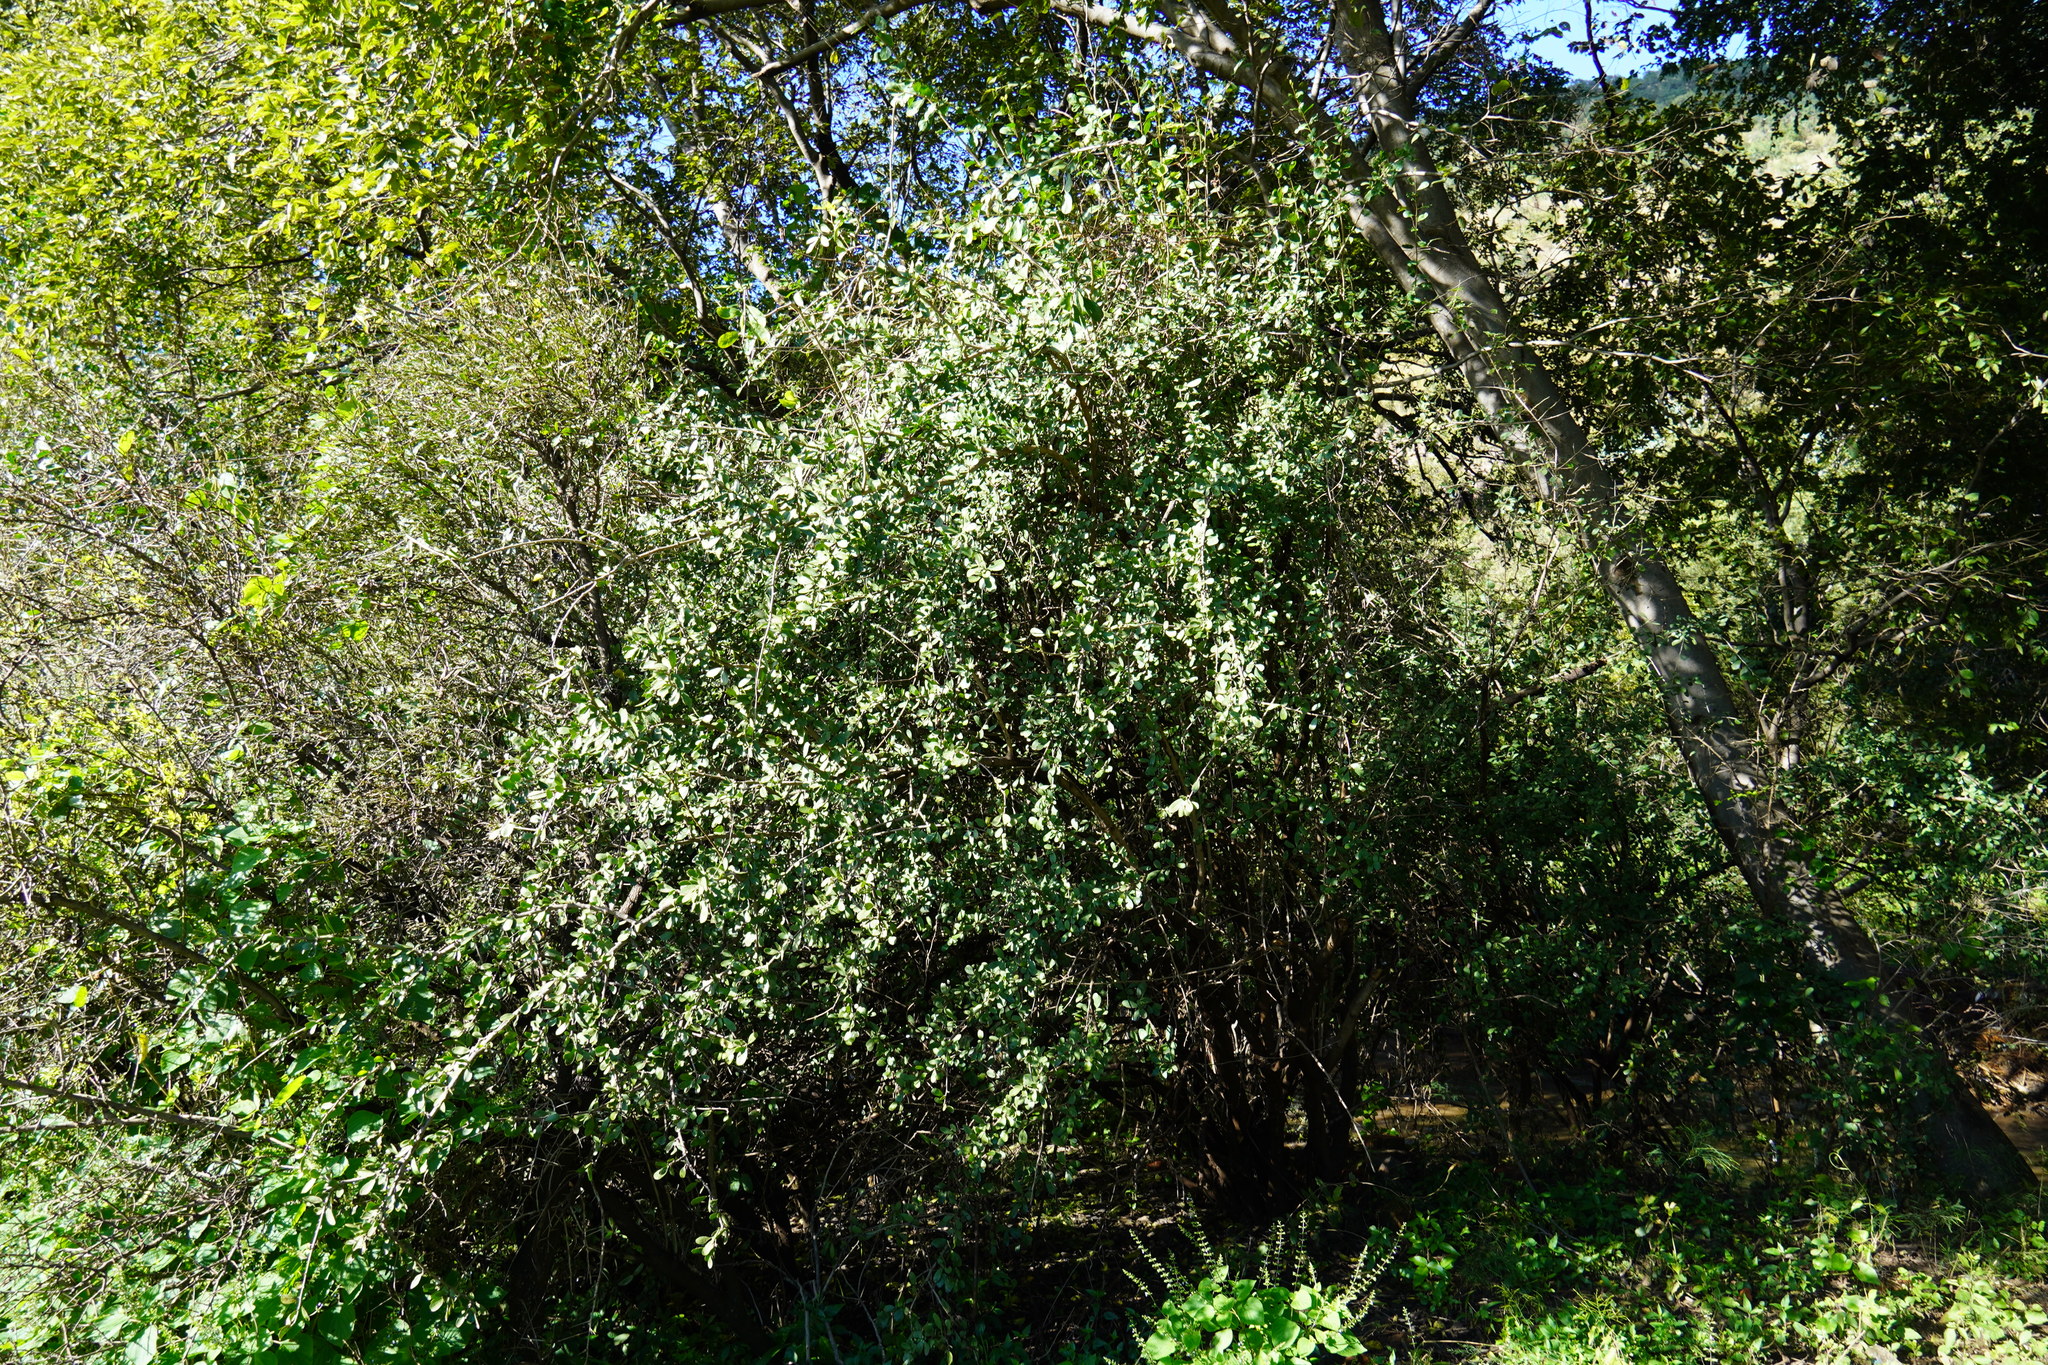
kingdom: Plantae
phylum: Tracheophyta
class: Magnoliopsida
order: Boraginales
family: Ehretiaceae
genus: Ehretia
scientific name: Ehretia rigida
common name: Cape lilac
